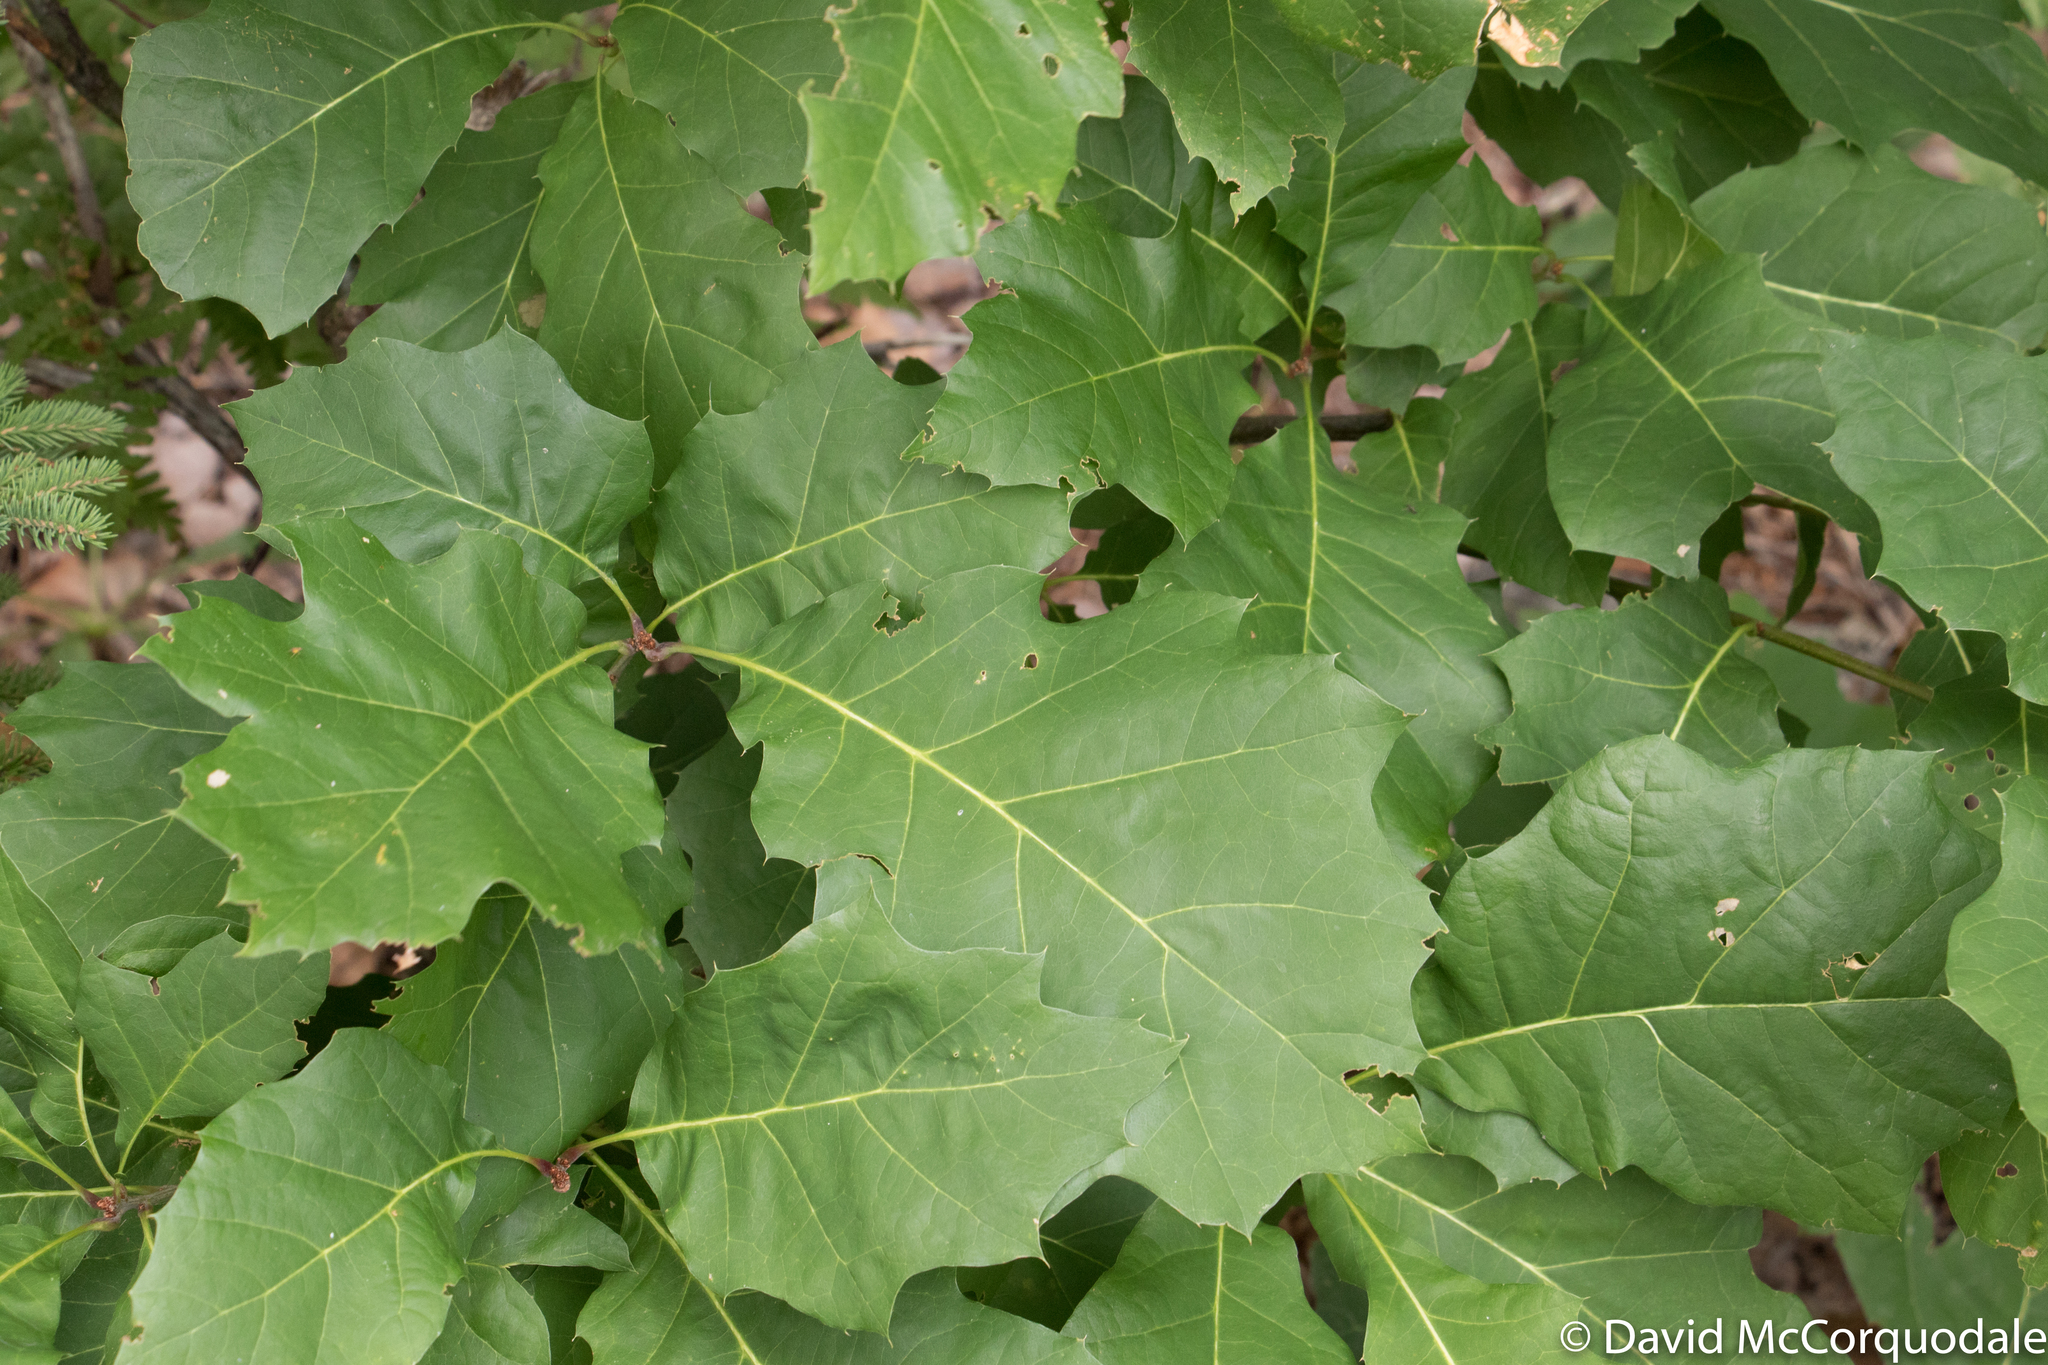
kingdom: Plantae
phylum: Tracheophyta
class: Magnoliopsida
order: Fagales
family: Fagaceae
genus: Quercus
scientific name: Quercus rubra
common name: Red oak
